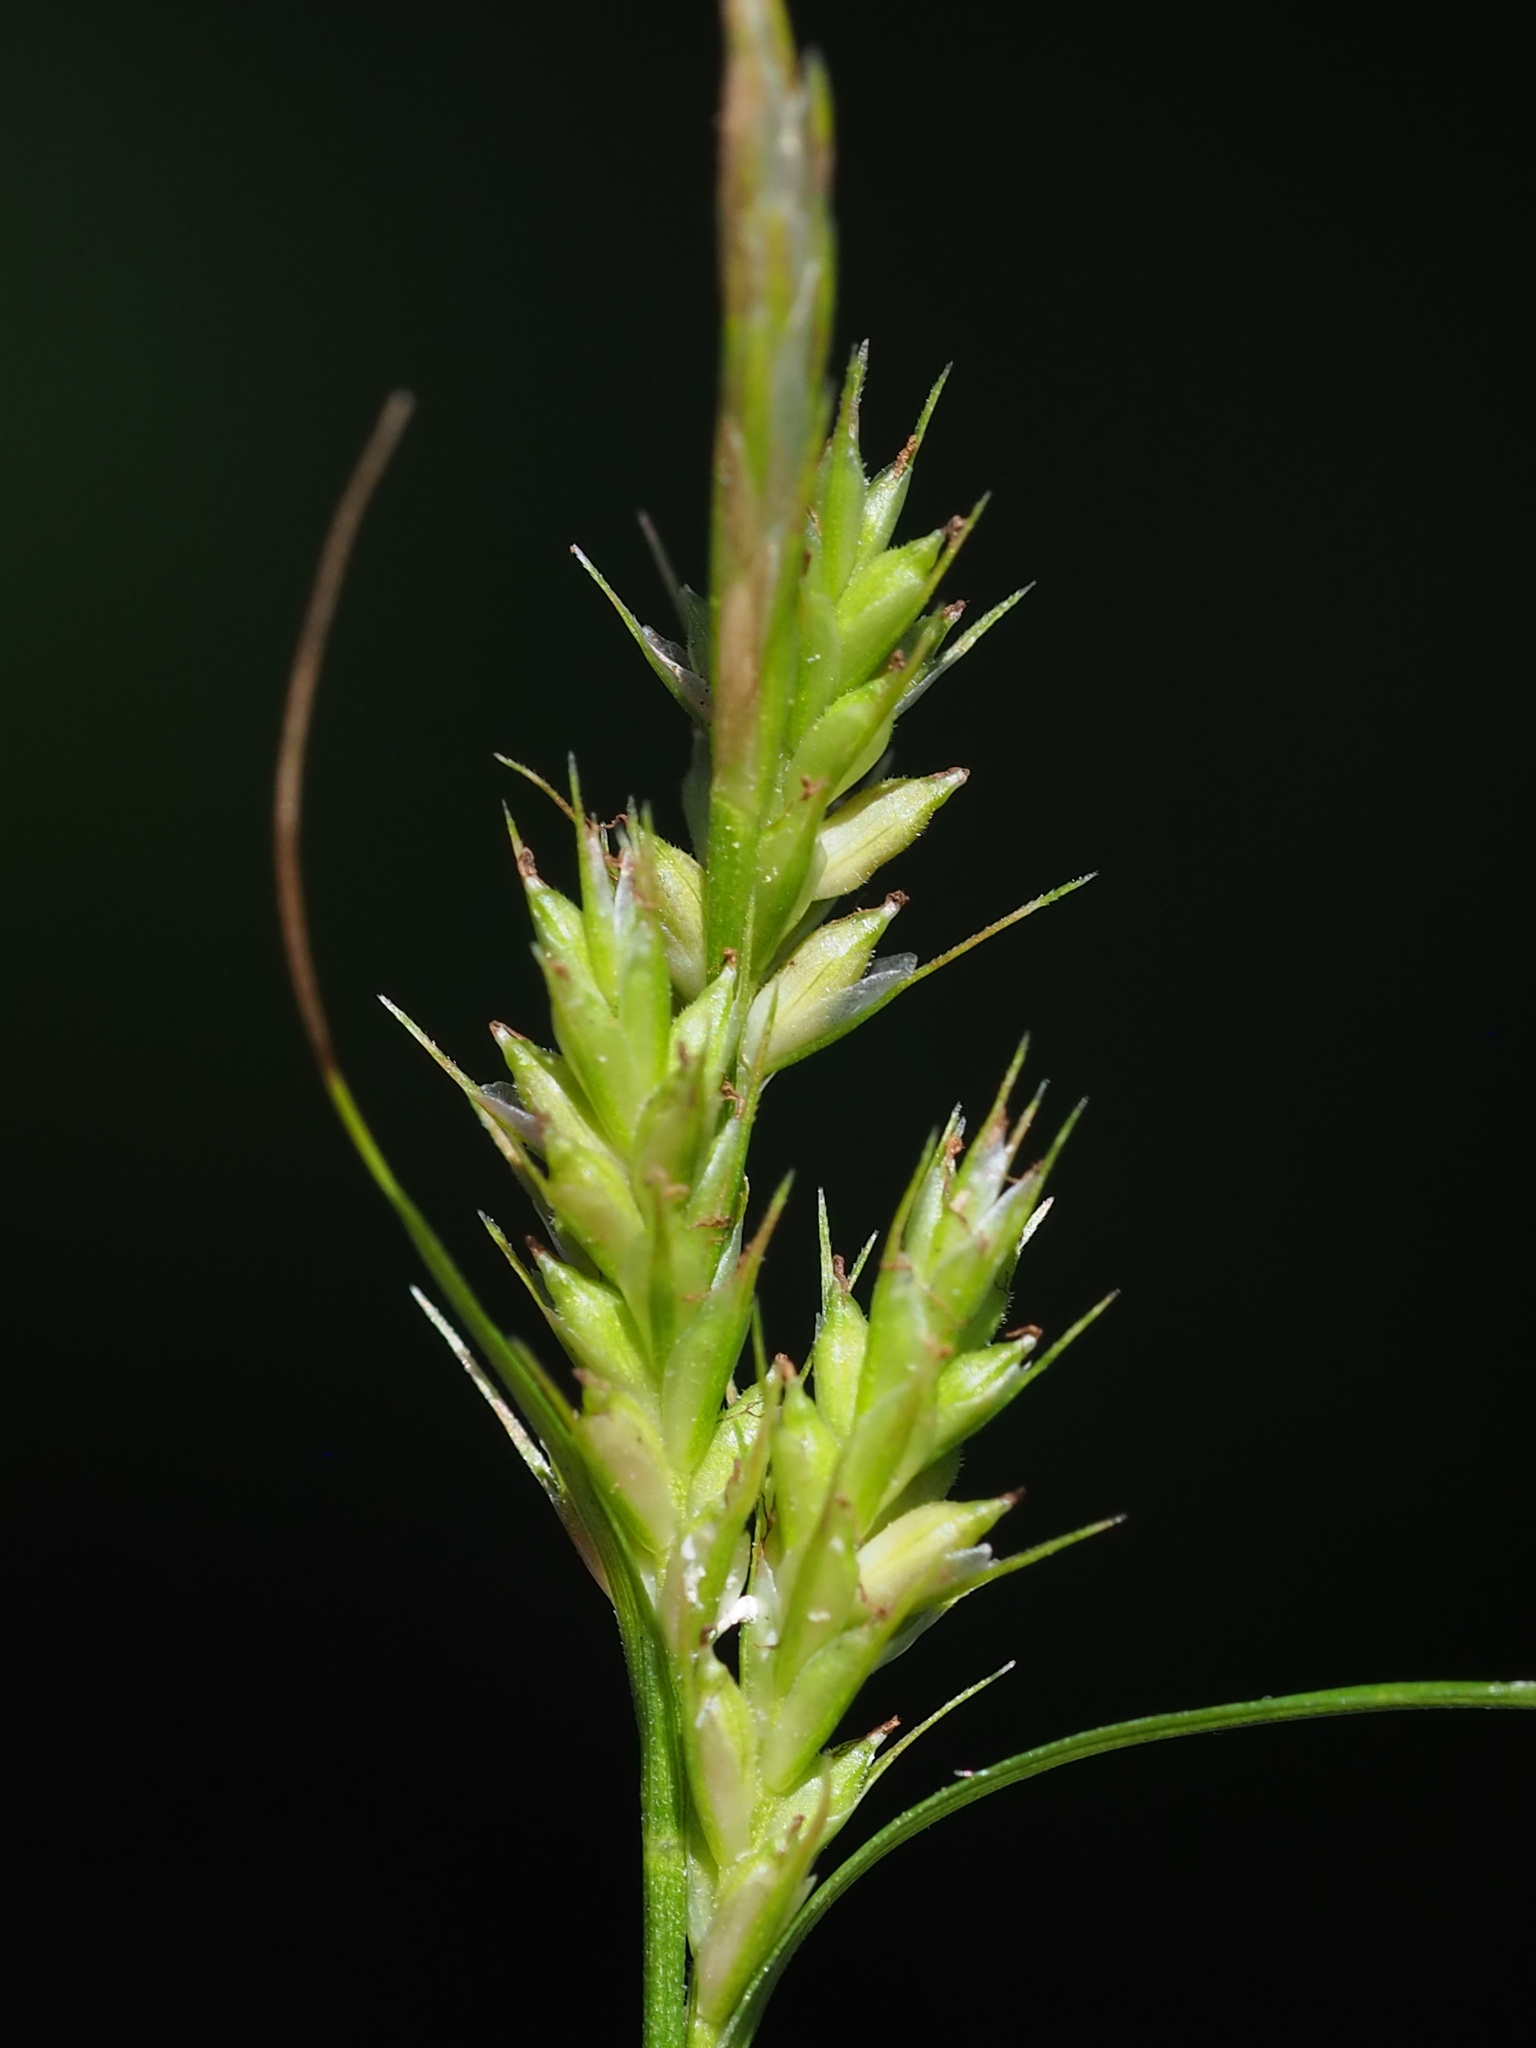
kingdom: Plantae
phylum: Tracheophyta
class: Liliopsida
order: Poales
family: Cyperaceae
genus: Carex
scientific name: Carex breviculmis
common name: Asian shortstem sedge
